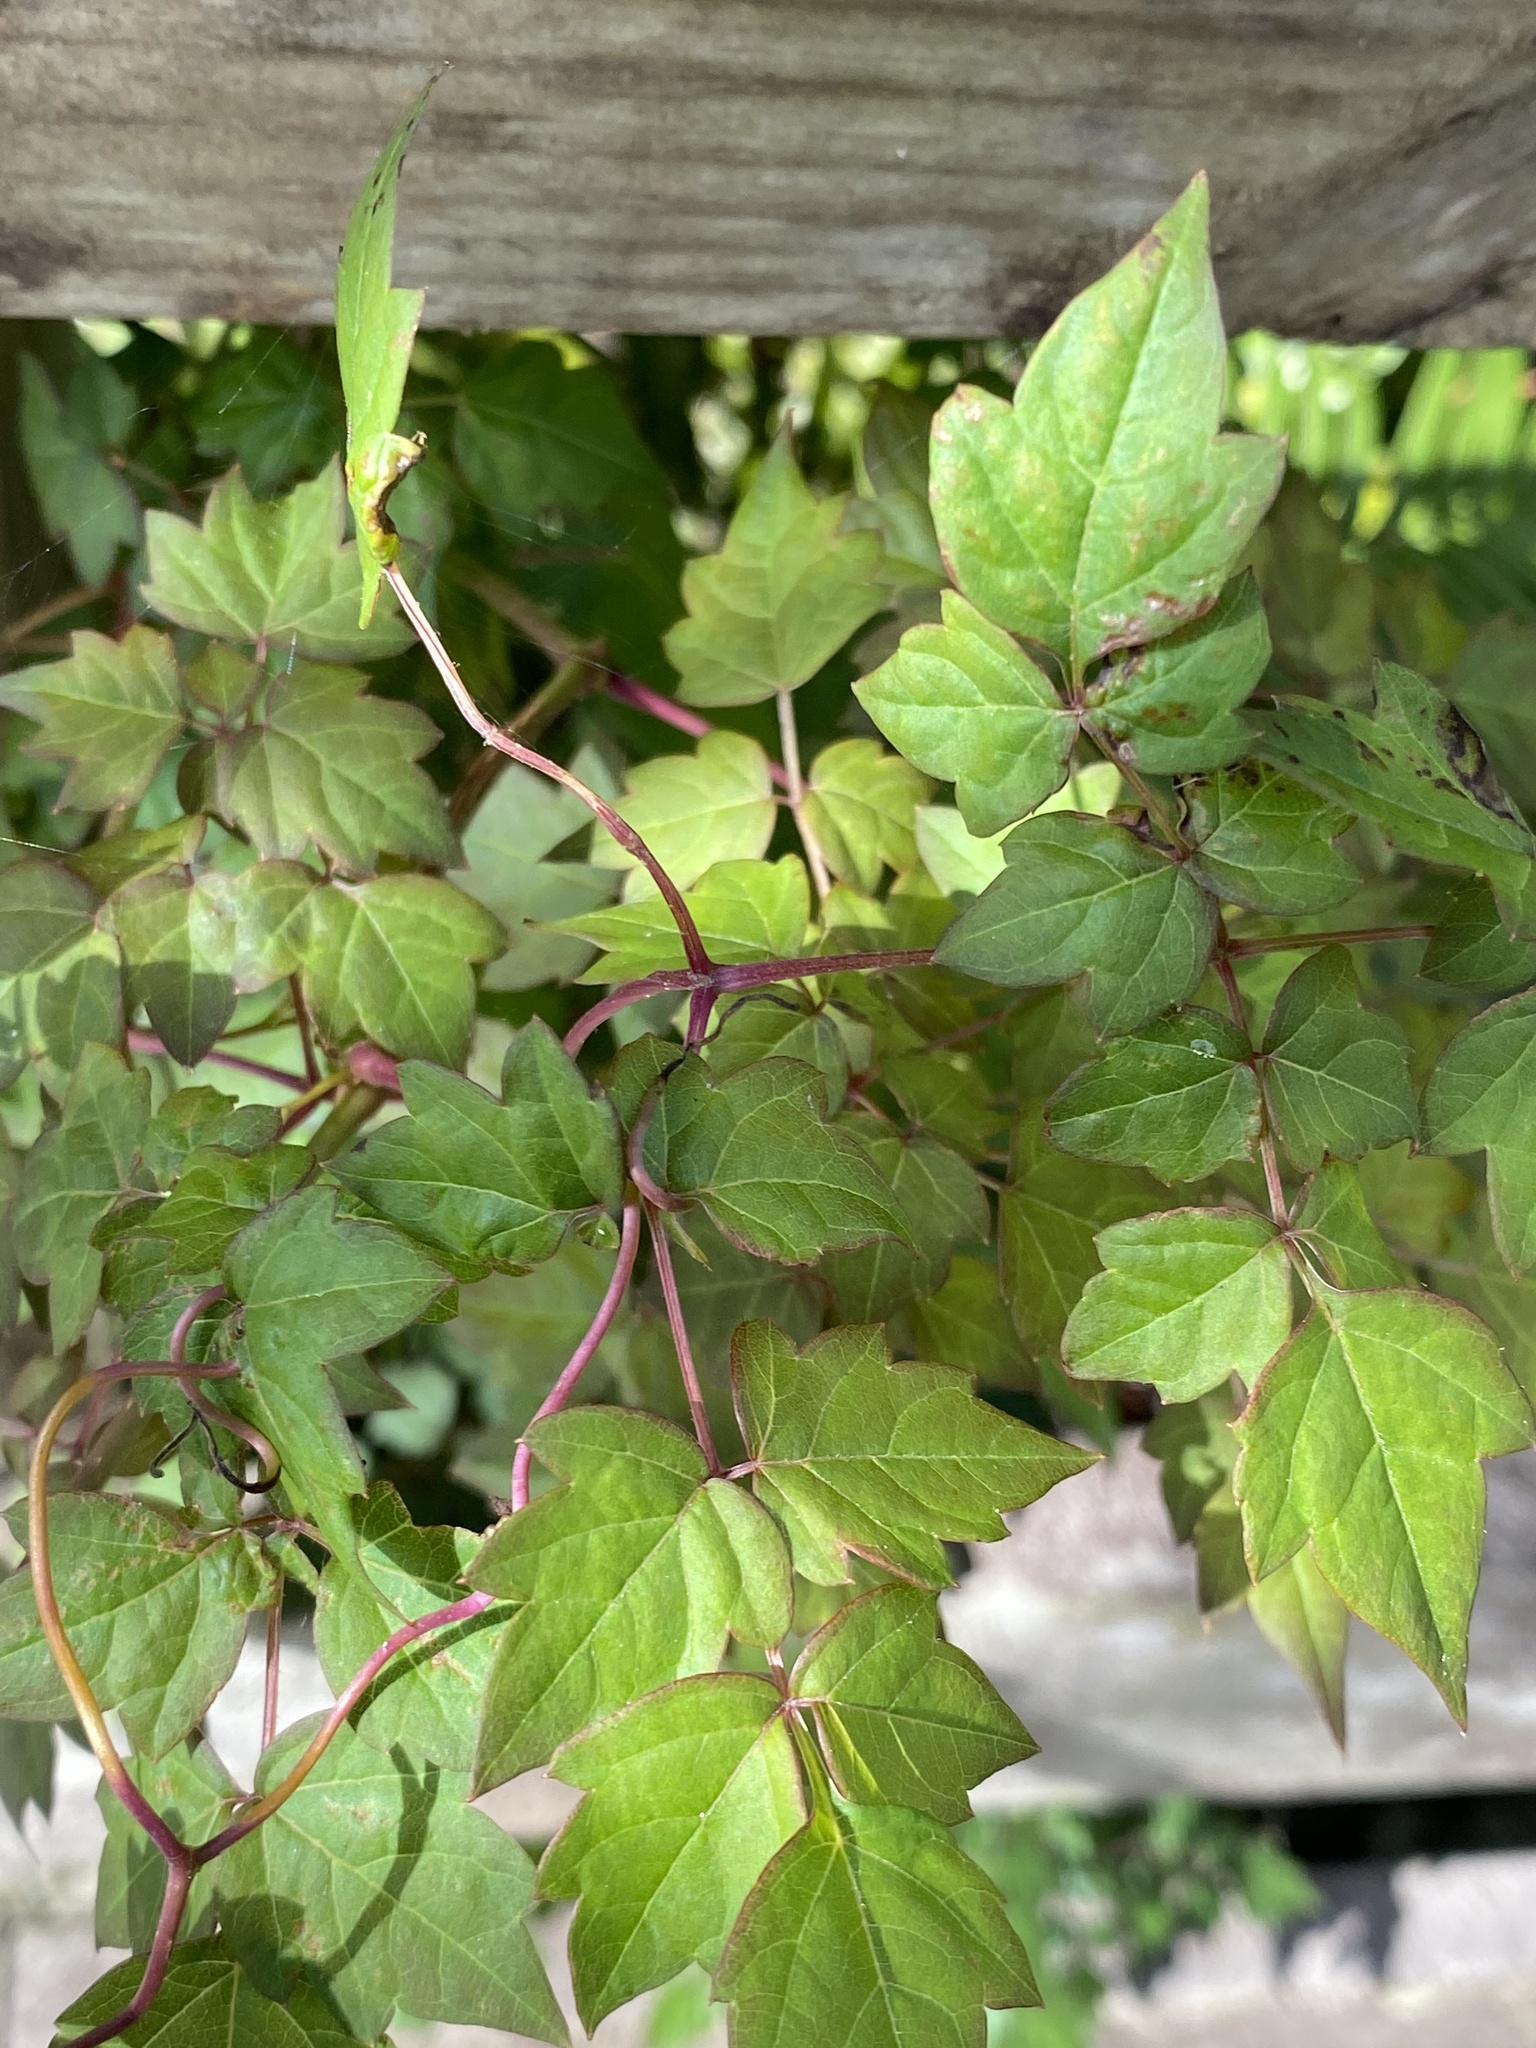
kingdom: Plantae
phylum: Tracheophyta
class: Magnoliopsida
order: Vitales
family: Vitaceae
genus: Nekemias
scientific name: Nekemias arborea
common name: Peppervine
